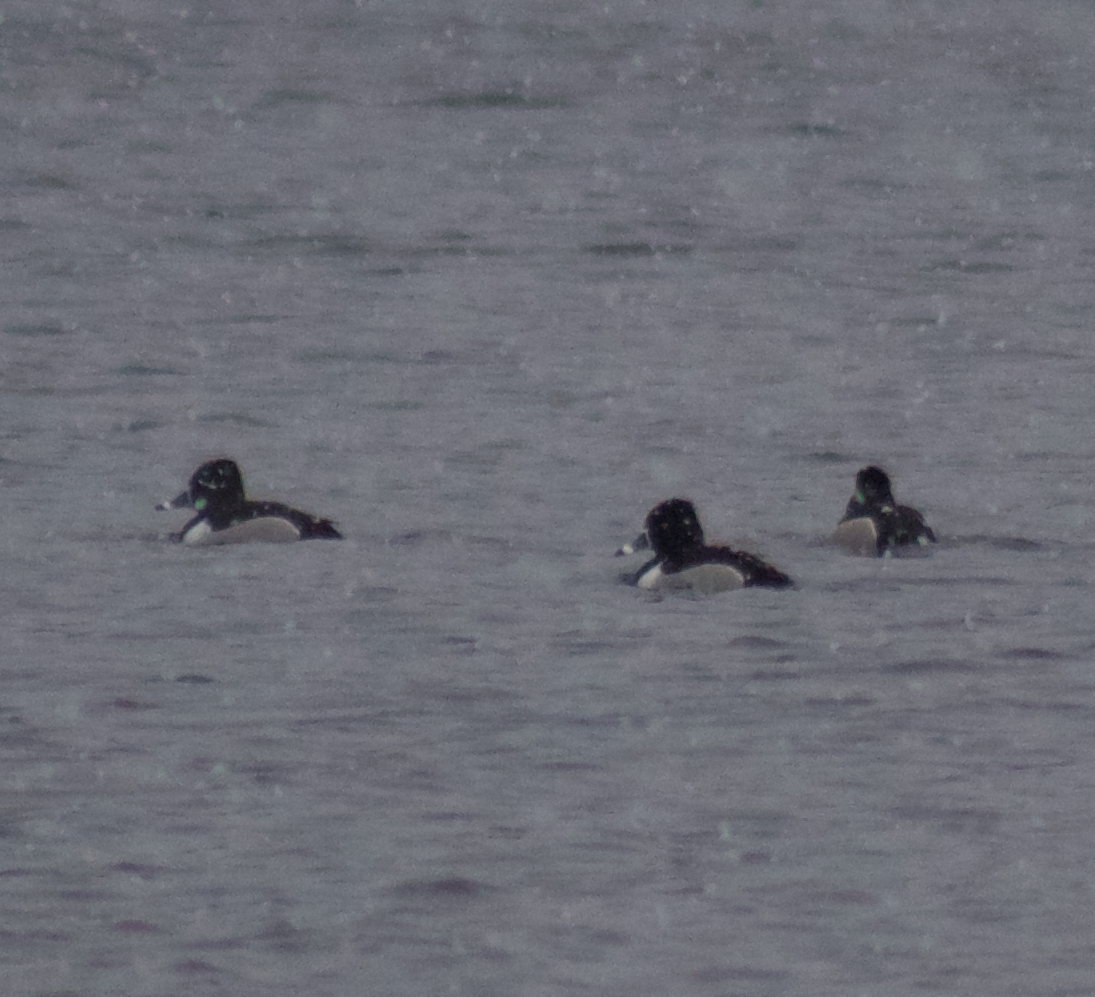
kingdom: Animalia
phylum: Chordata
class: Aves
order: Anseriformes
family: Anatidae
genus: Aythya
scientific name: Aythya collaris
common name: Ring-necked duck
